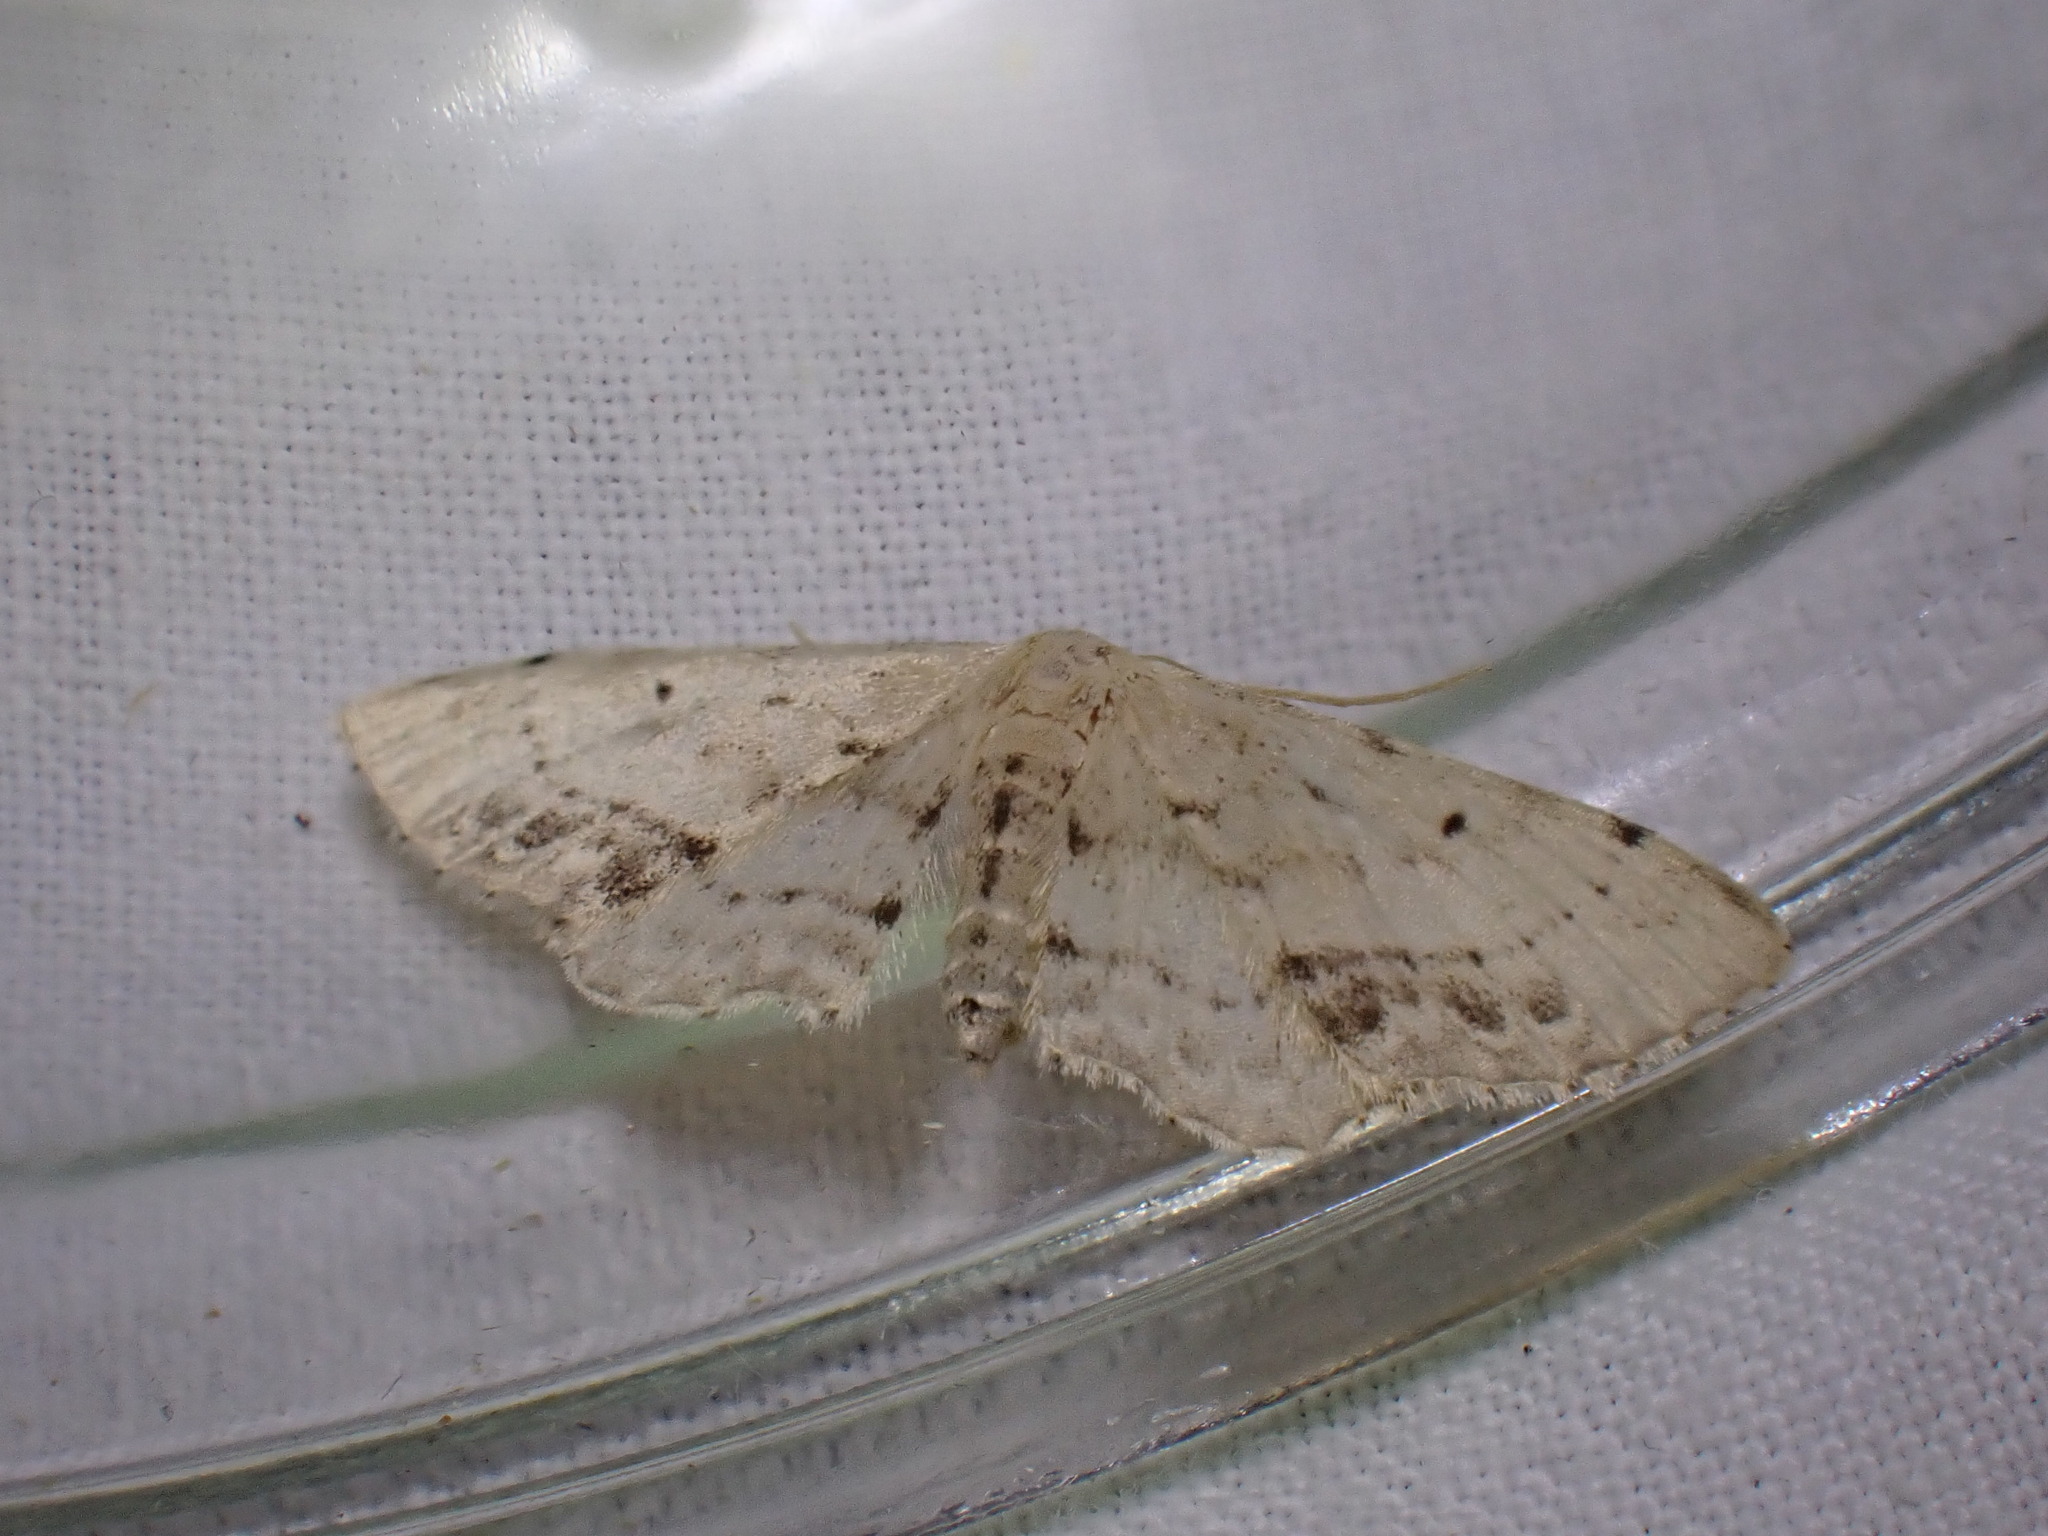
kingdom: Animalia
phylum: Arthropoda
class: Insecta
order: Lepidoptera
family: Geometridae
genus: Idaea
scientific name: Idaea dimidiata
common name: Single-dotted wave
